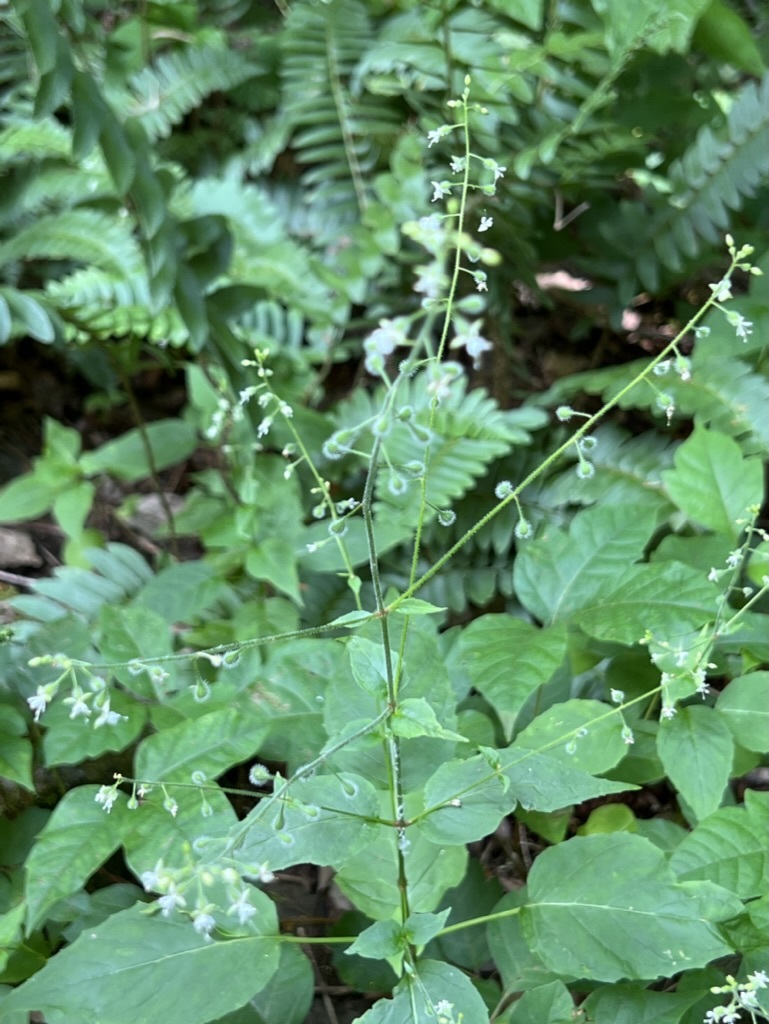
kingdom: Plantae
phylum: Tracheophyta
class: Magnoliopsida
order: Myrtales
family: Onagraceae
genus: Circaea
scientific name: Circaea canadensis
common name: Broad-leaved enchanter's nightshade
